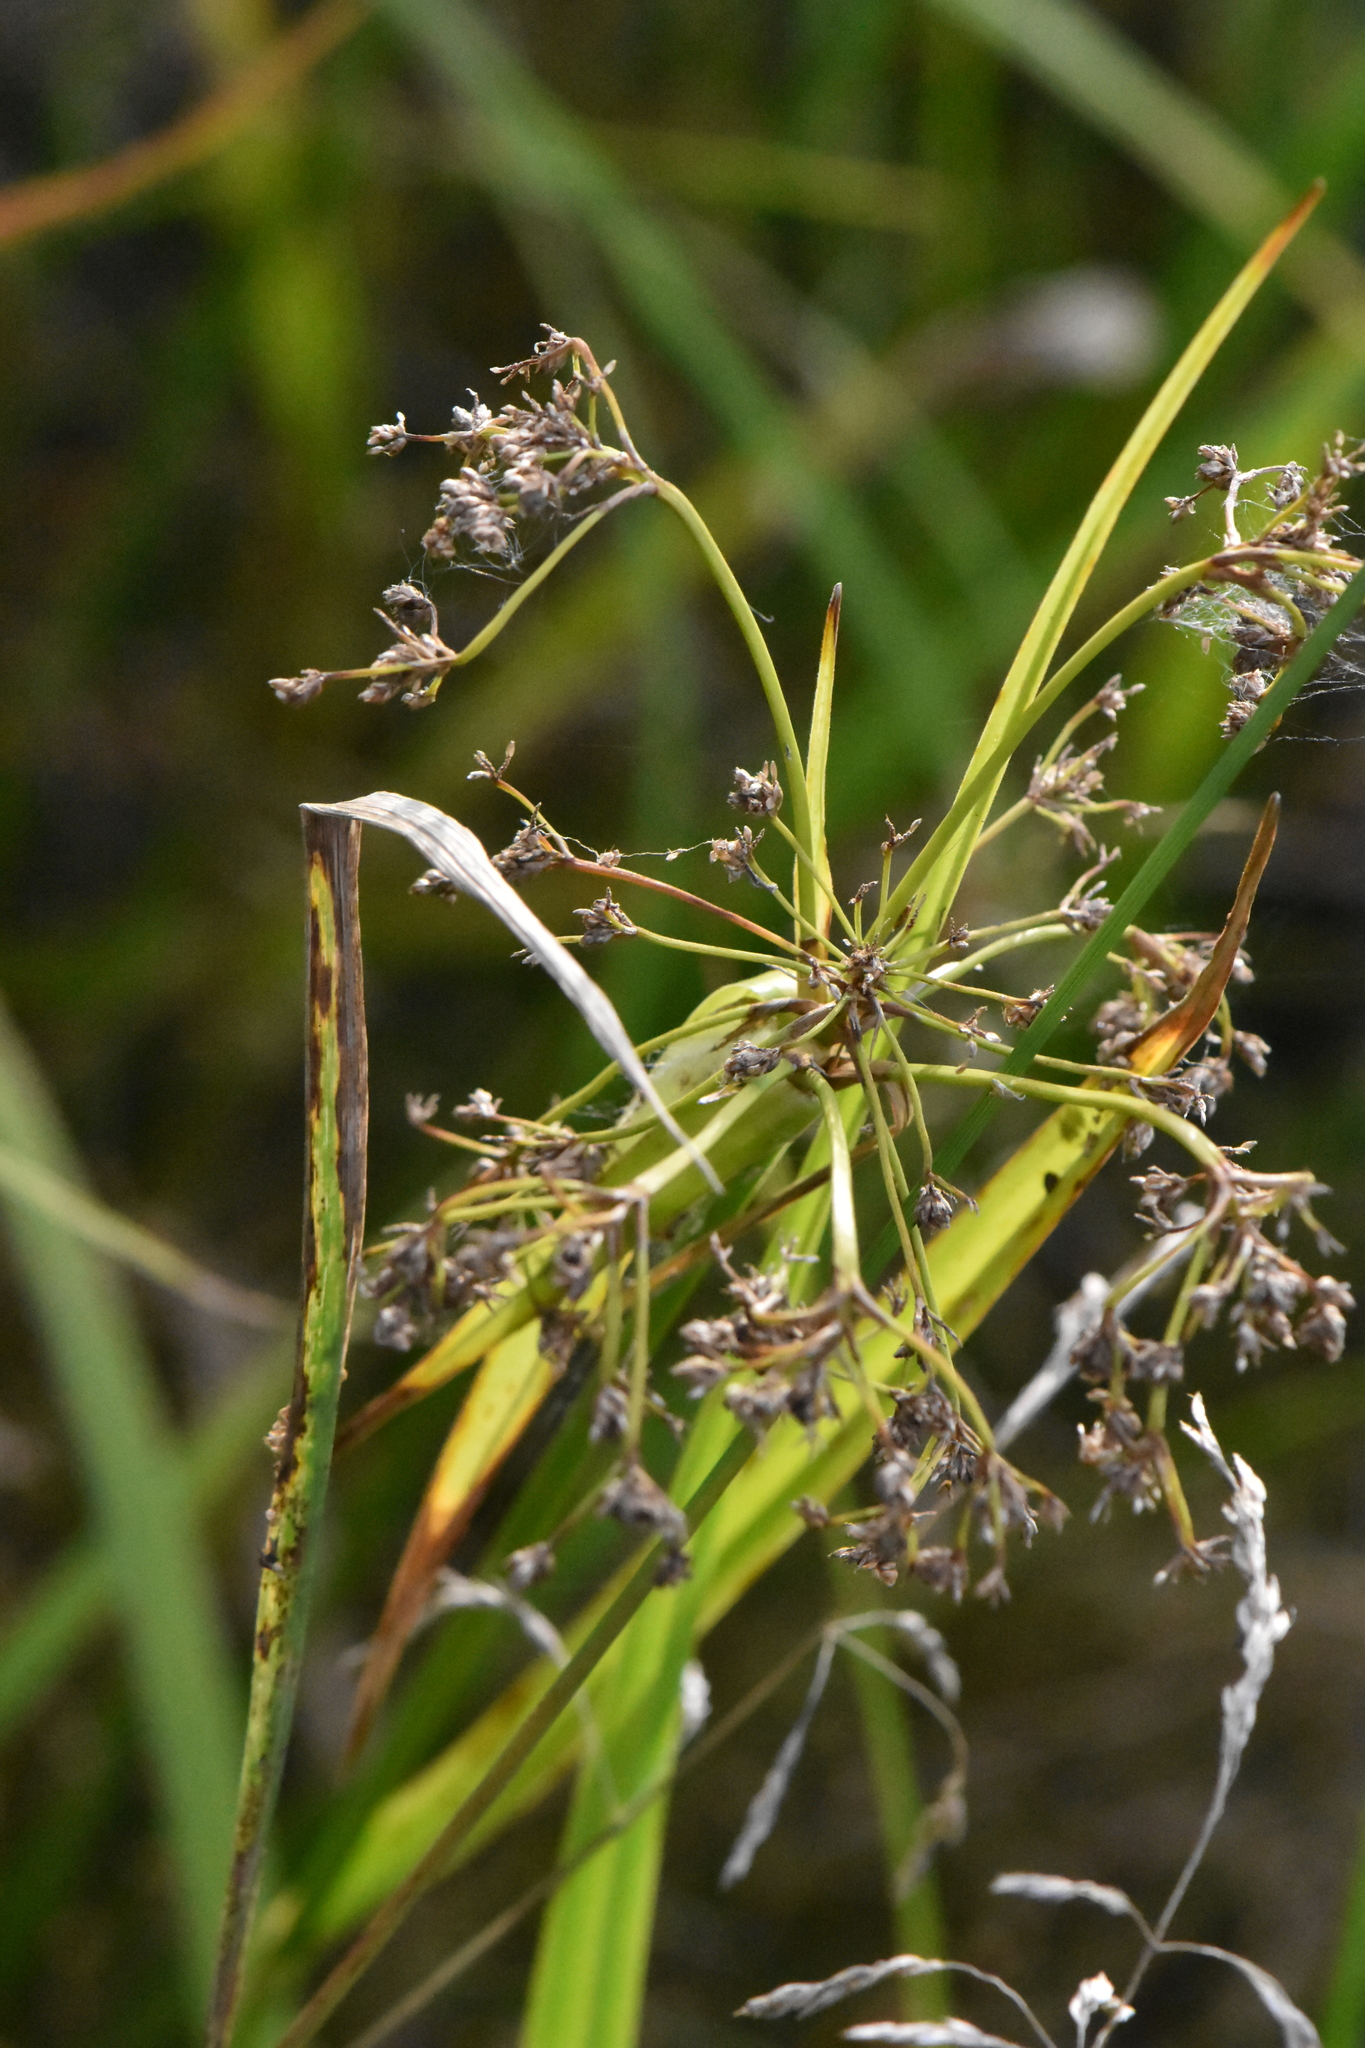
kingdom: Plantae
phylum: Tracheophyta
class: Liliopsida
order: Poales
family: Cyperaceae
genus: Scirpus
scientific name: Scirpus sylvaticus
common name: Wood club-rush
